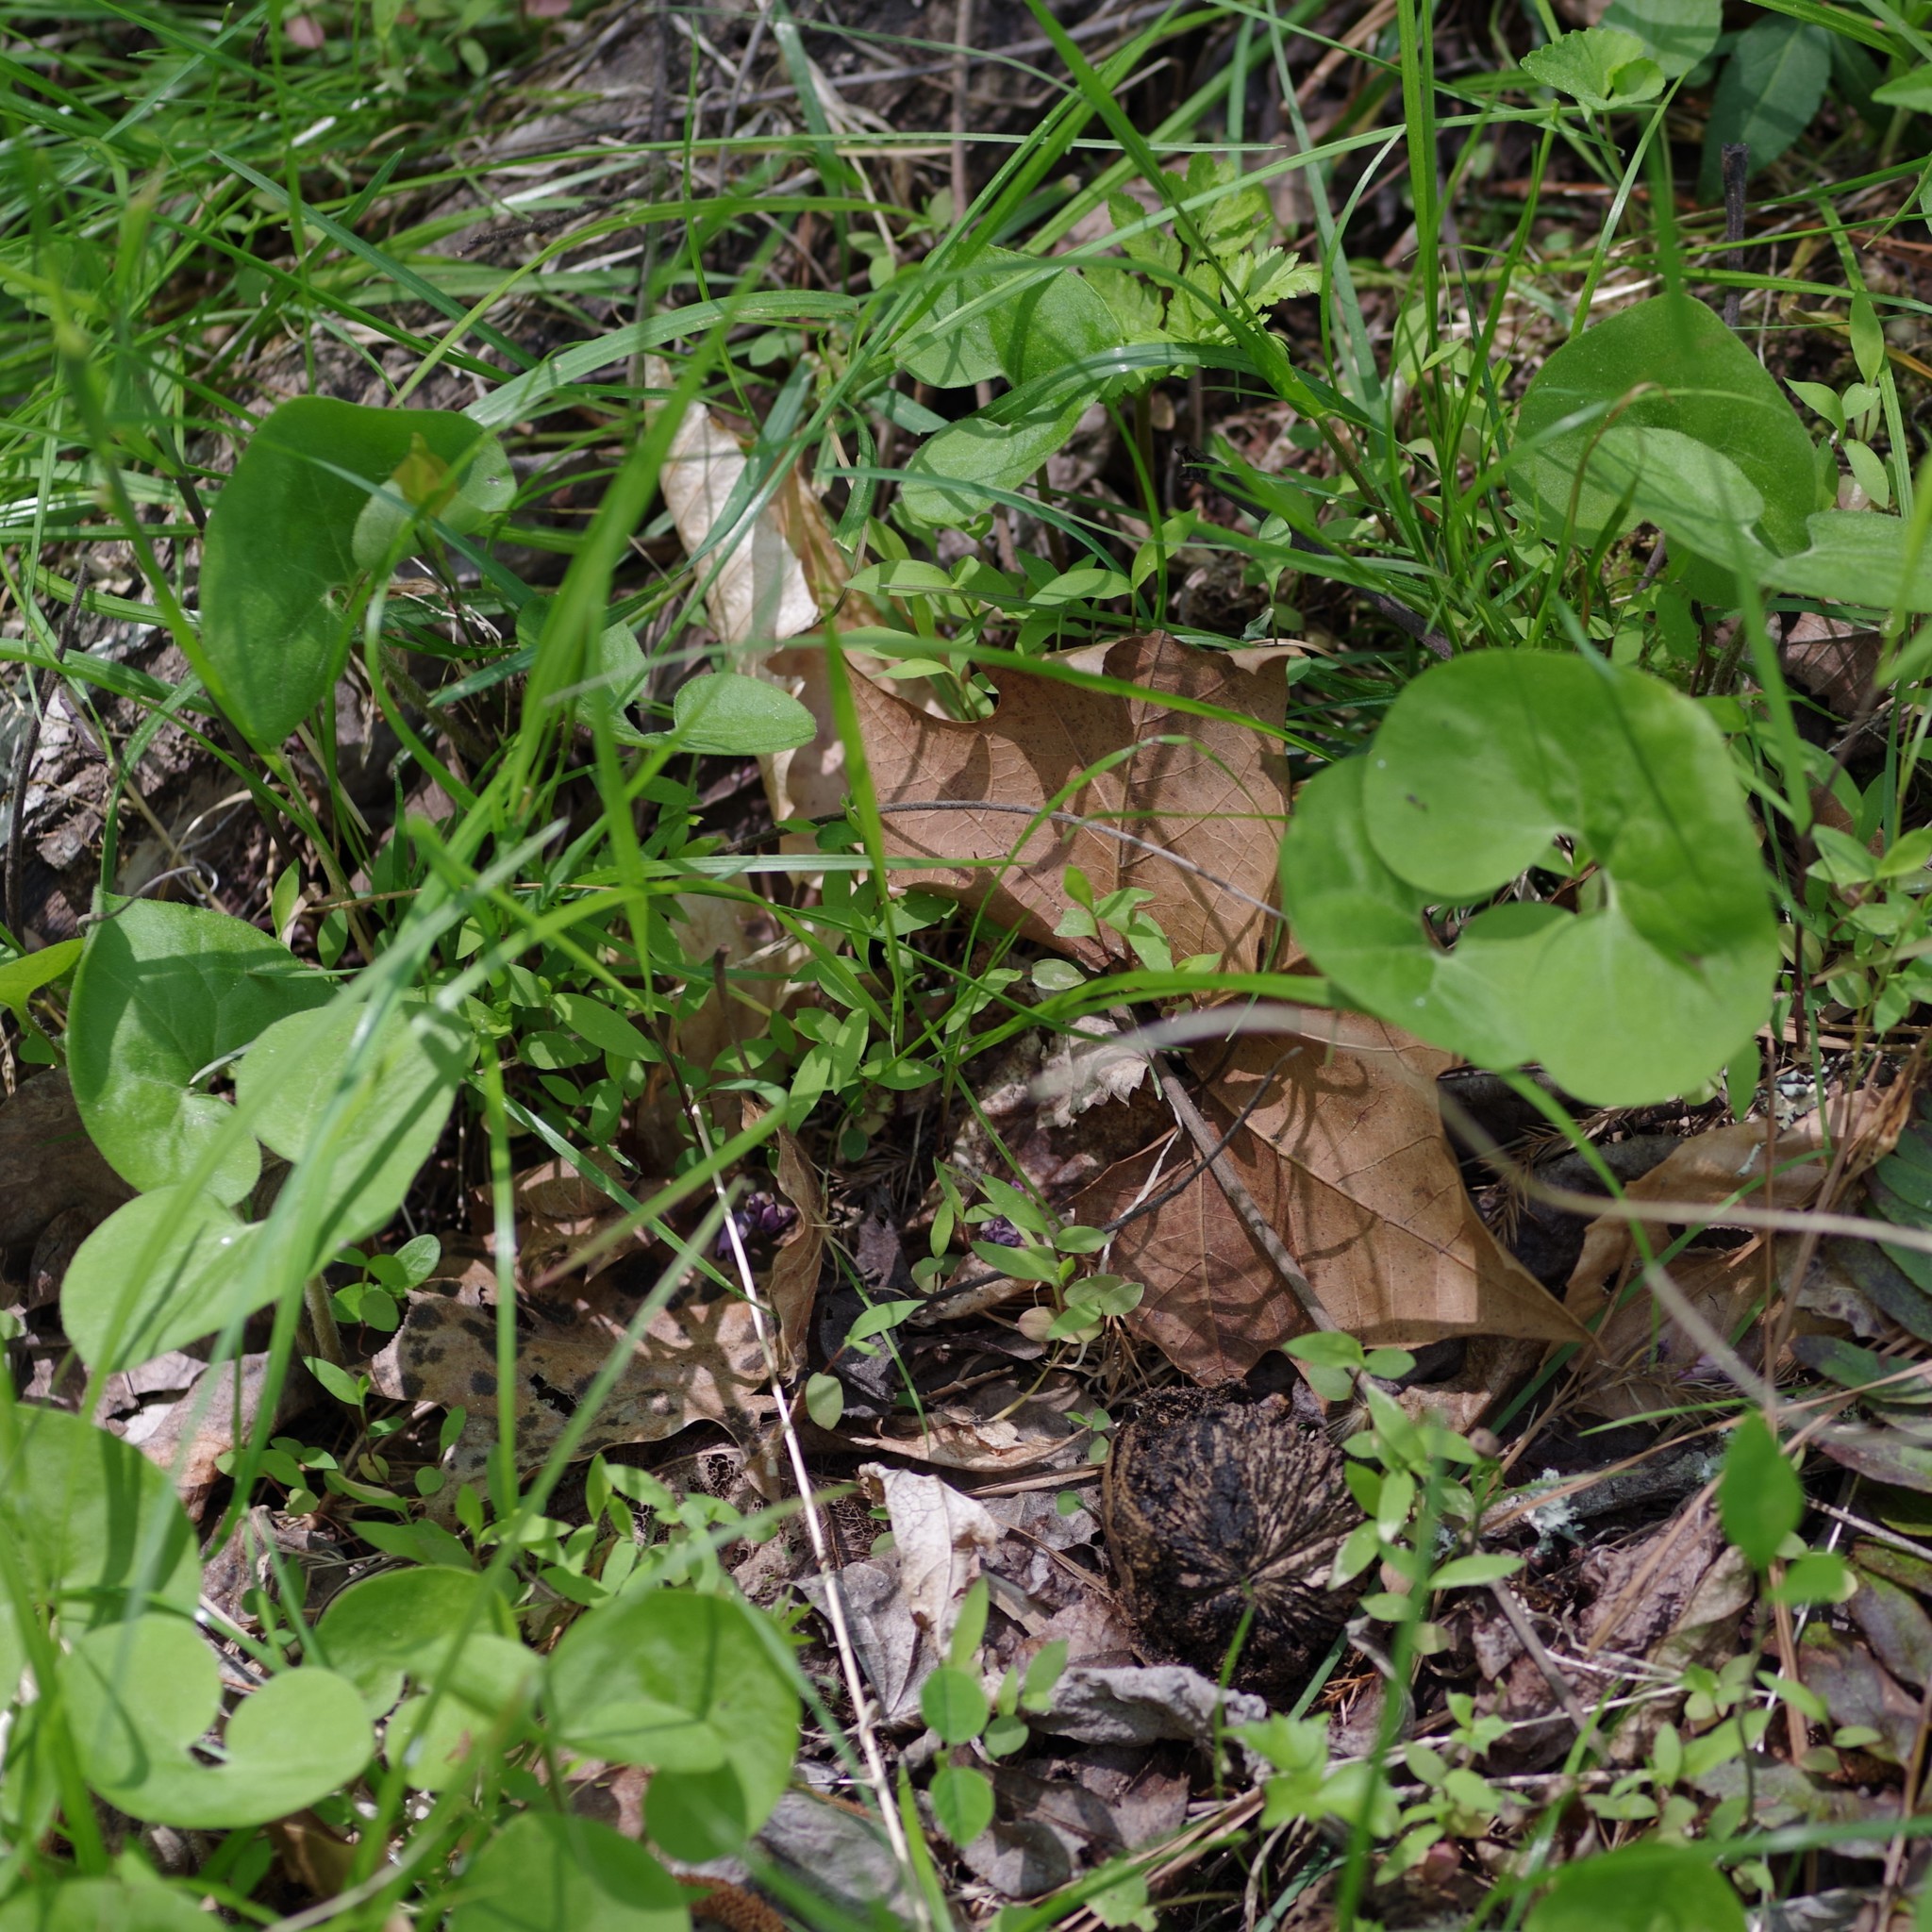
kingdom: Plantae
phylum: Tracheophyta
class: Magnoliopsida
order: Piperales
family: Aristolochiaceae
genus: Asarum
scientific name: Asarum canadense
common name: Wild ginger
